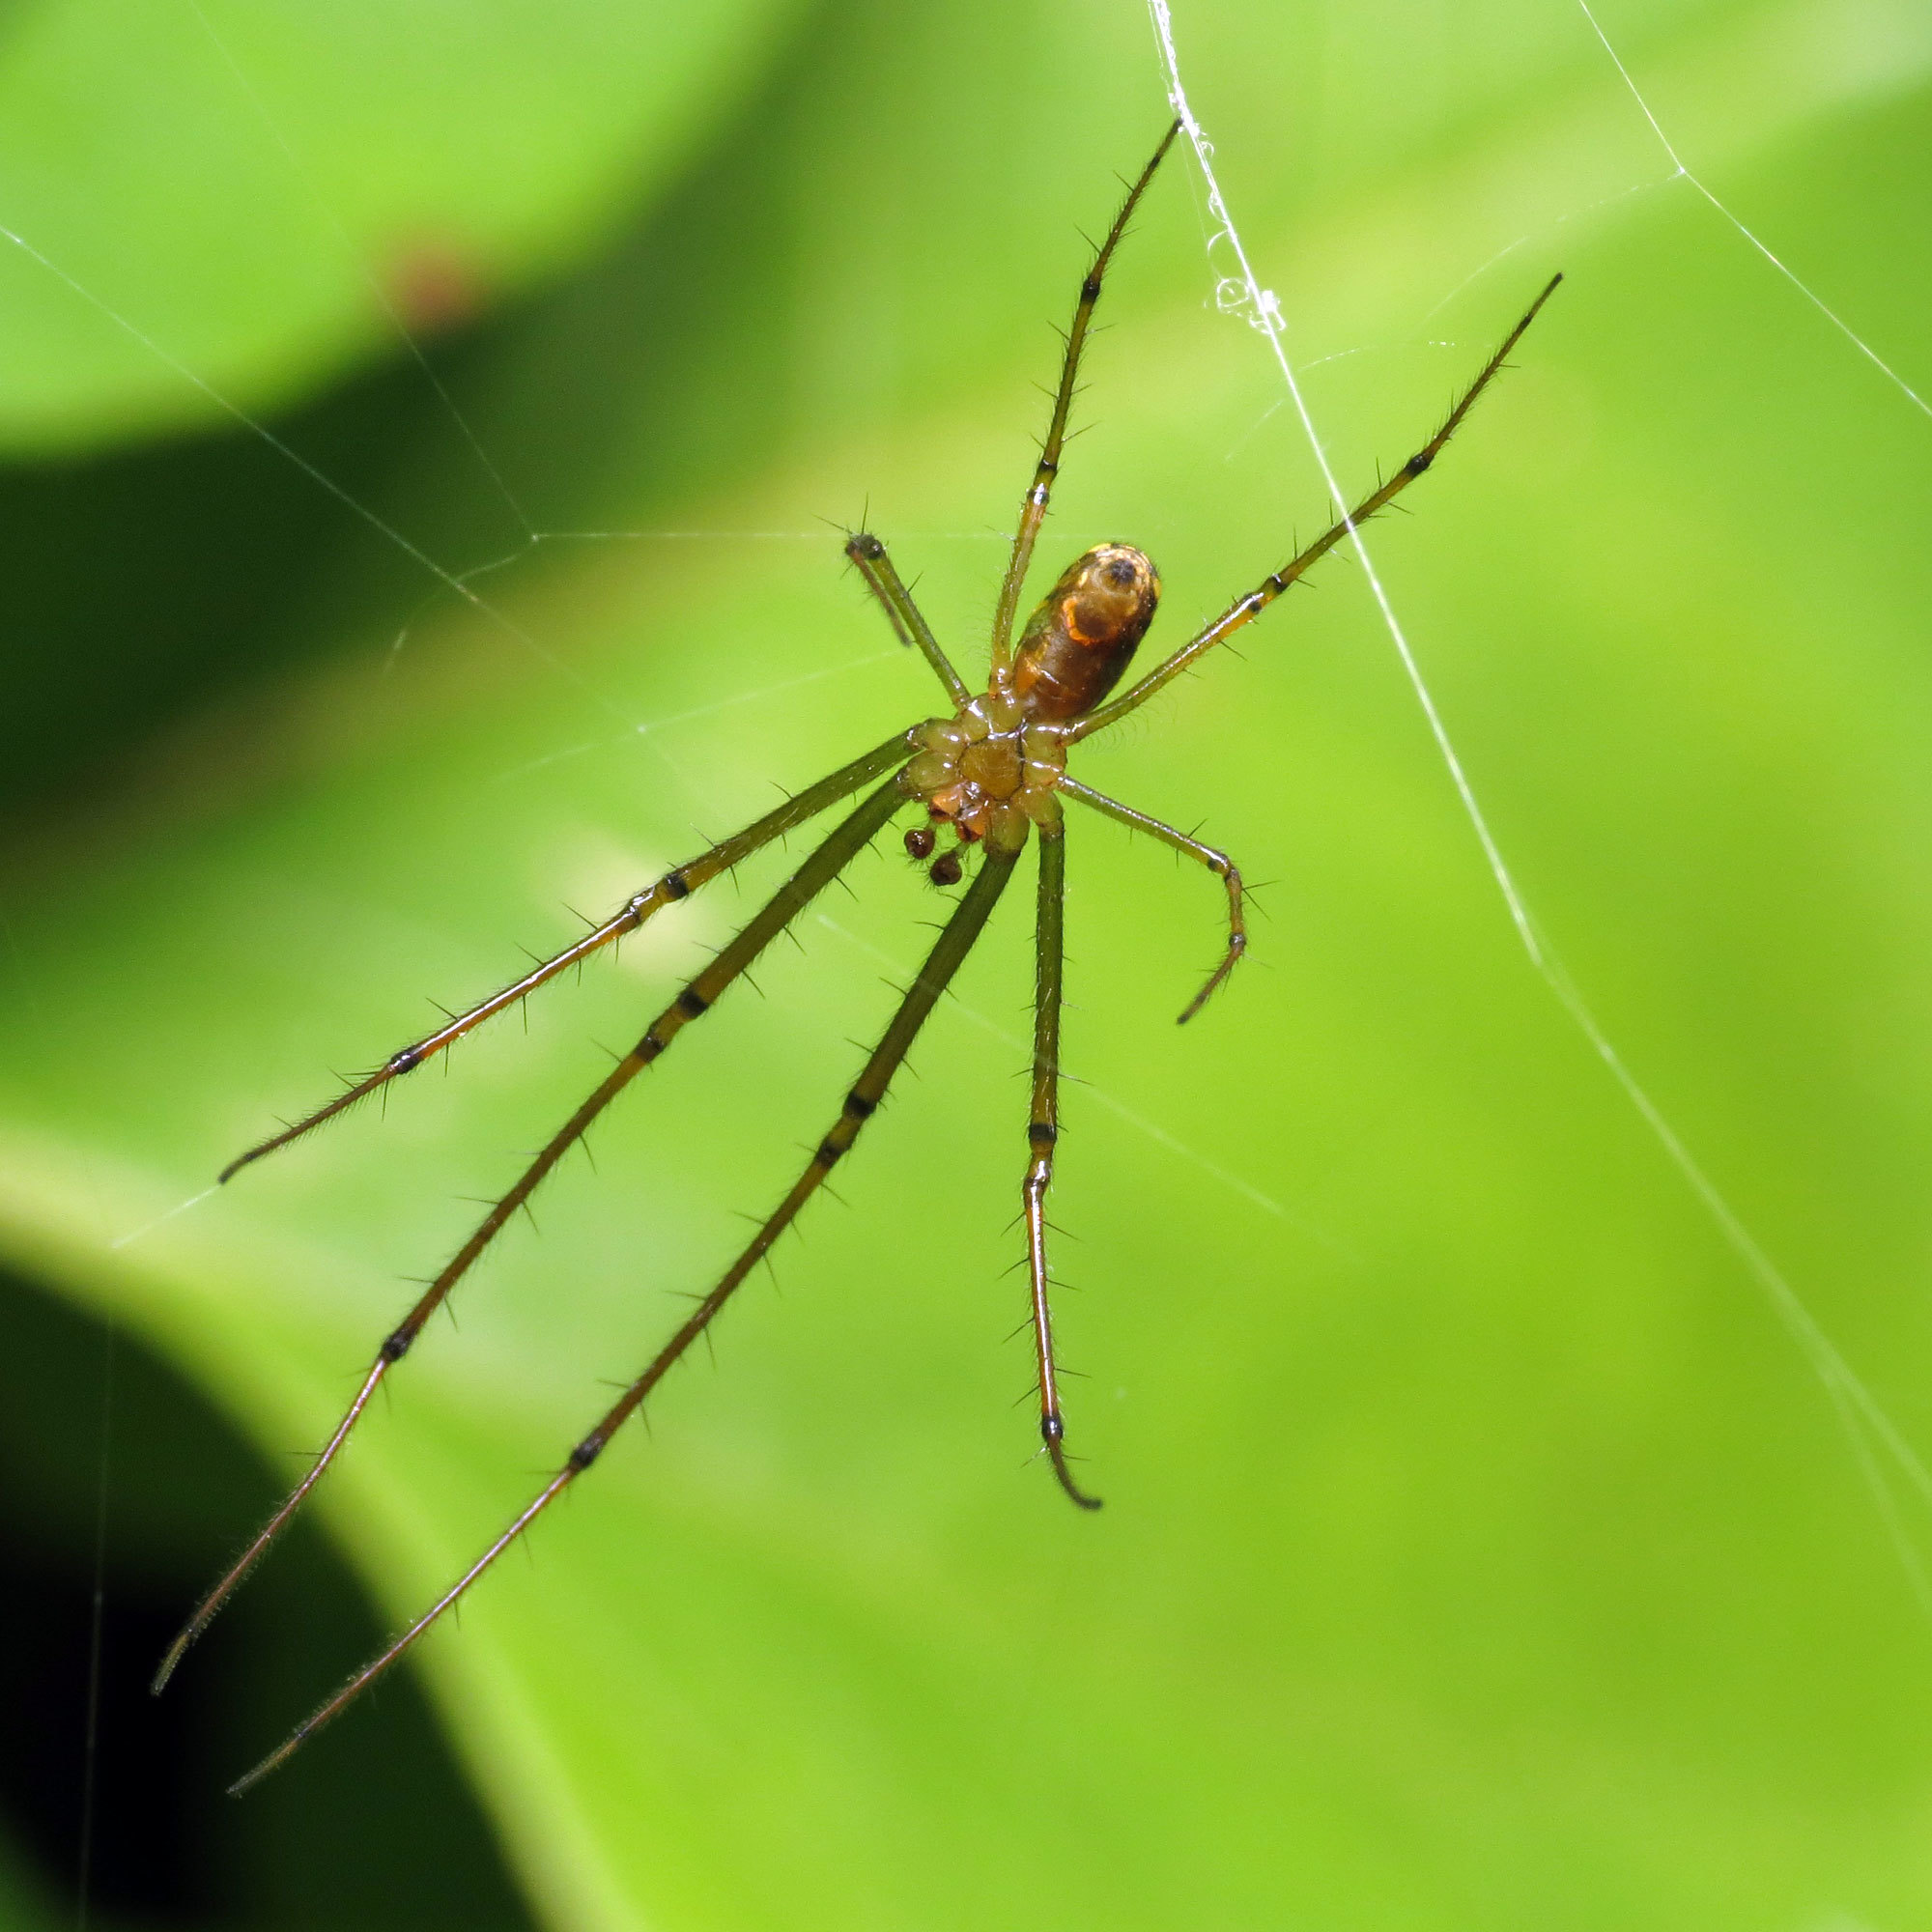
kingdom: Animalia
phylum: Arthropoda
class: Arachnida
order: Araneae
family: Tetragnathidae
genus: Leucauge
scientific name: Leucauge venusta
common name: Longjawed orb weavers
